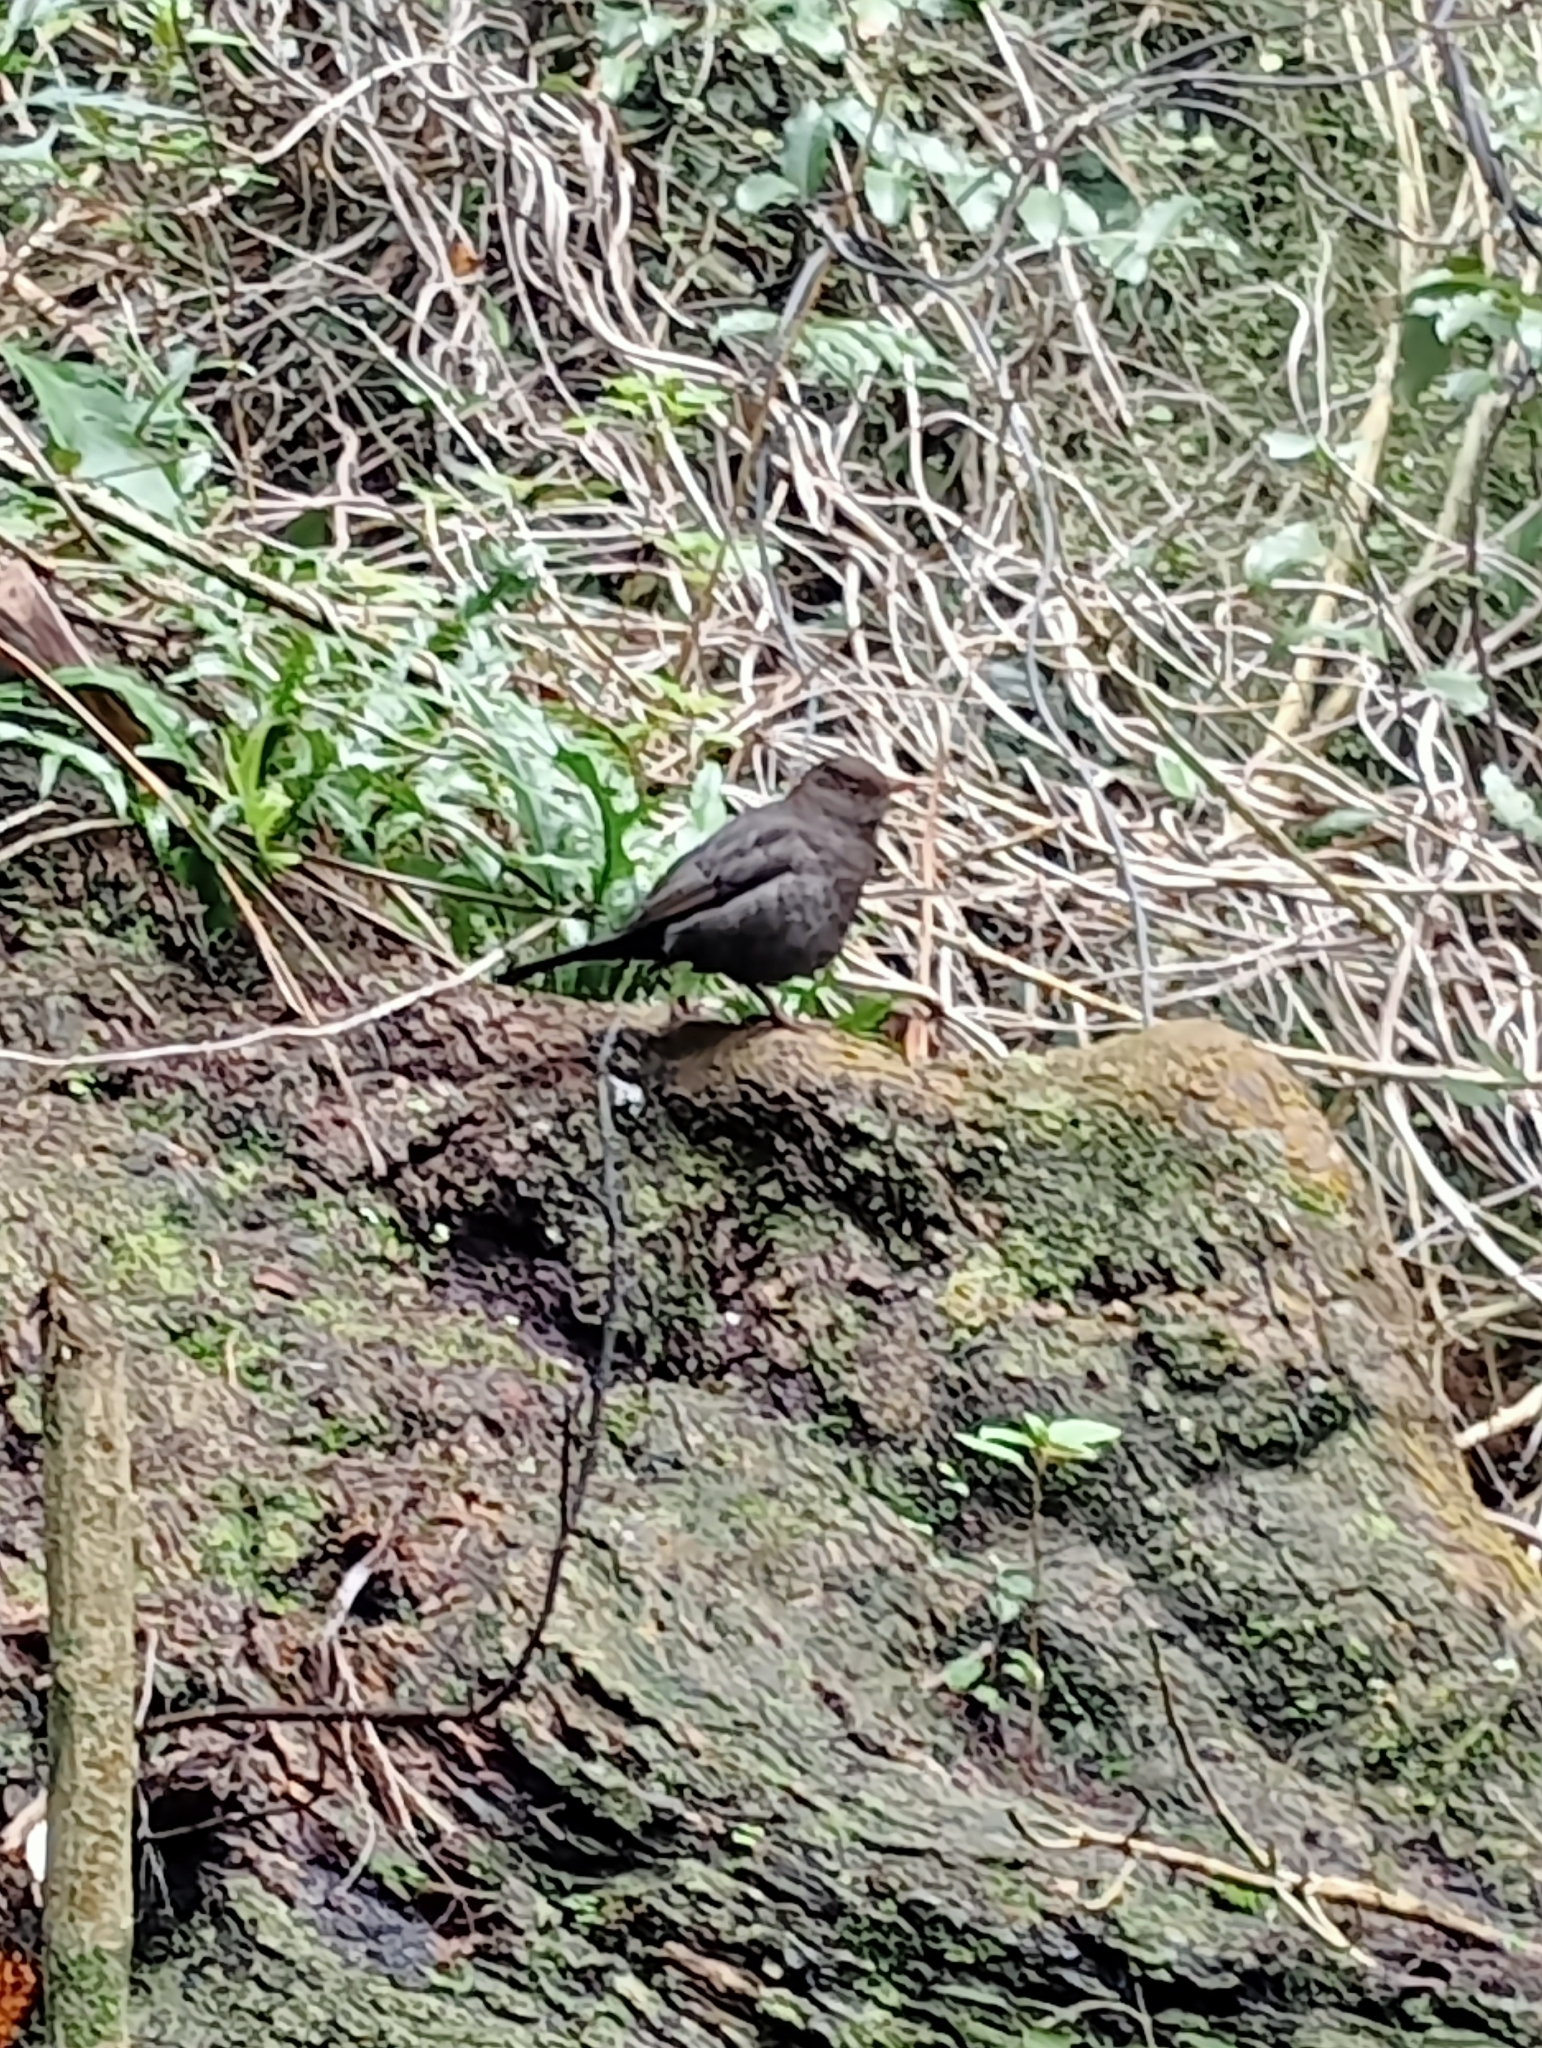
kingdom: Animalia
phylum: Chordata
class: Aves
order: Passeriformes
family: Turdidae
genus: Turdus
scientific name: Turdus merula
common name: Common blackbird
